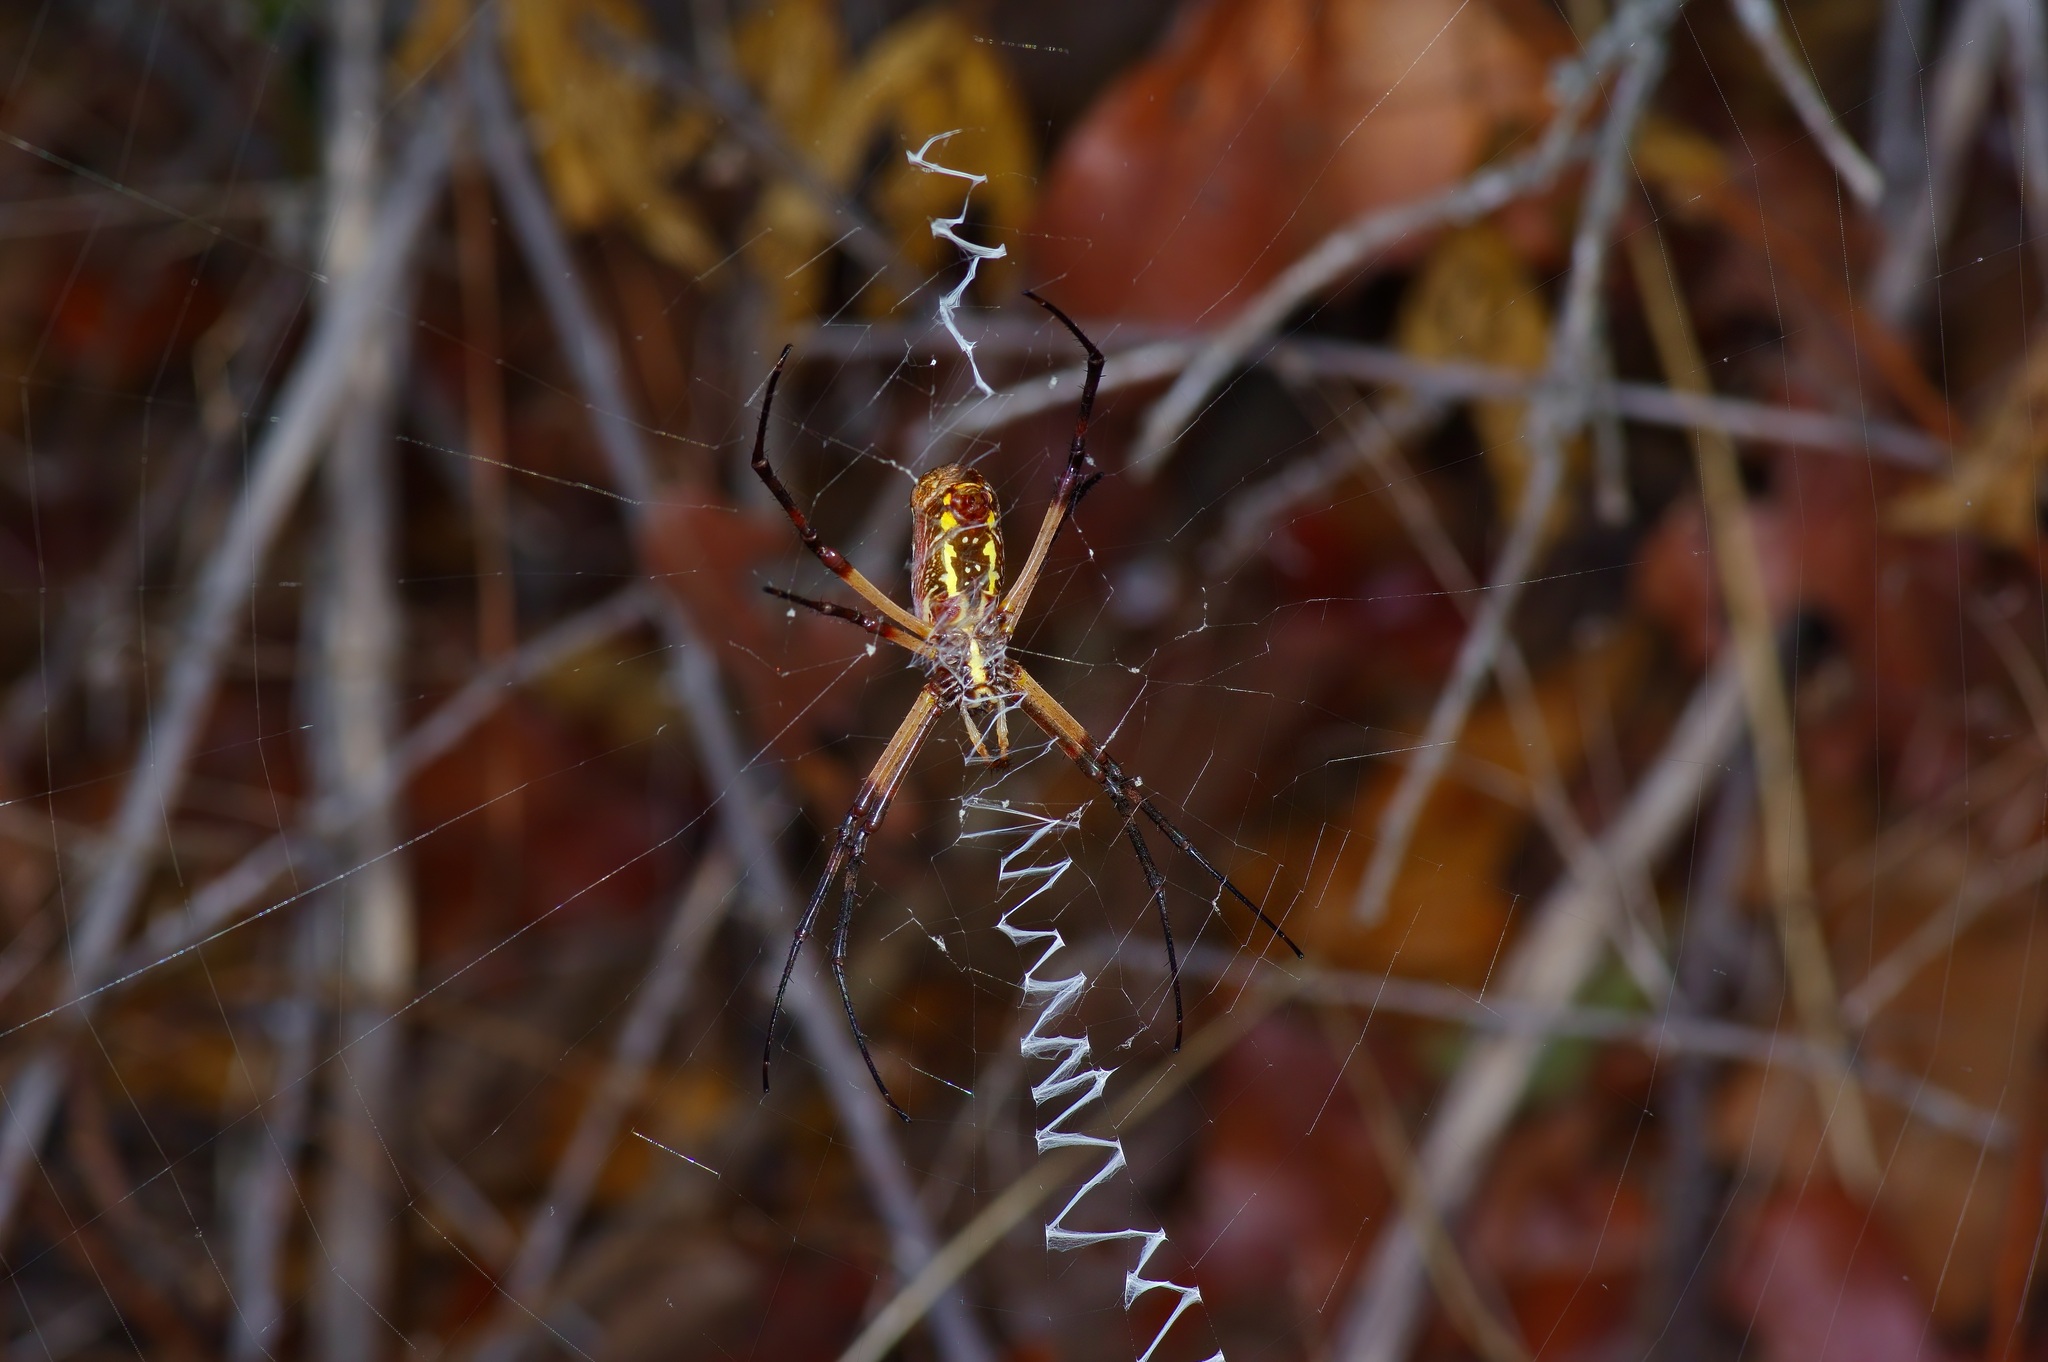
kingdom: Animalia
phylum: Arthropoda
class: Arachnida
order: Araneae
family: Araneidae
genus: Argiope
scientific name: Argiope aurantia
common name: Orb weavers
